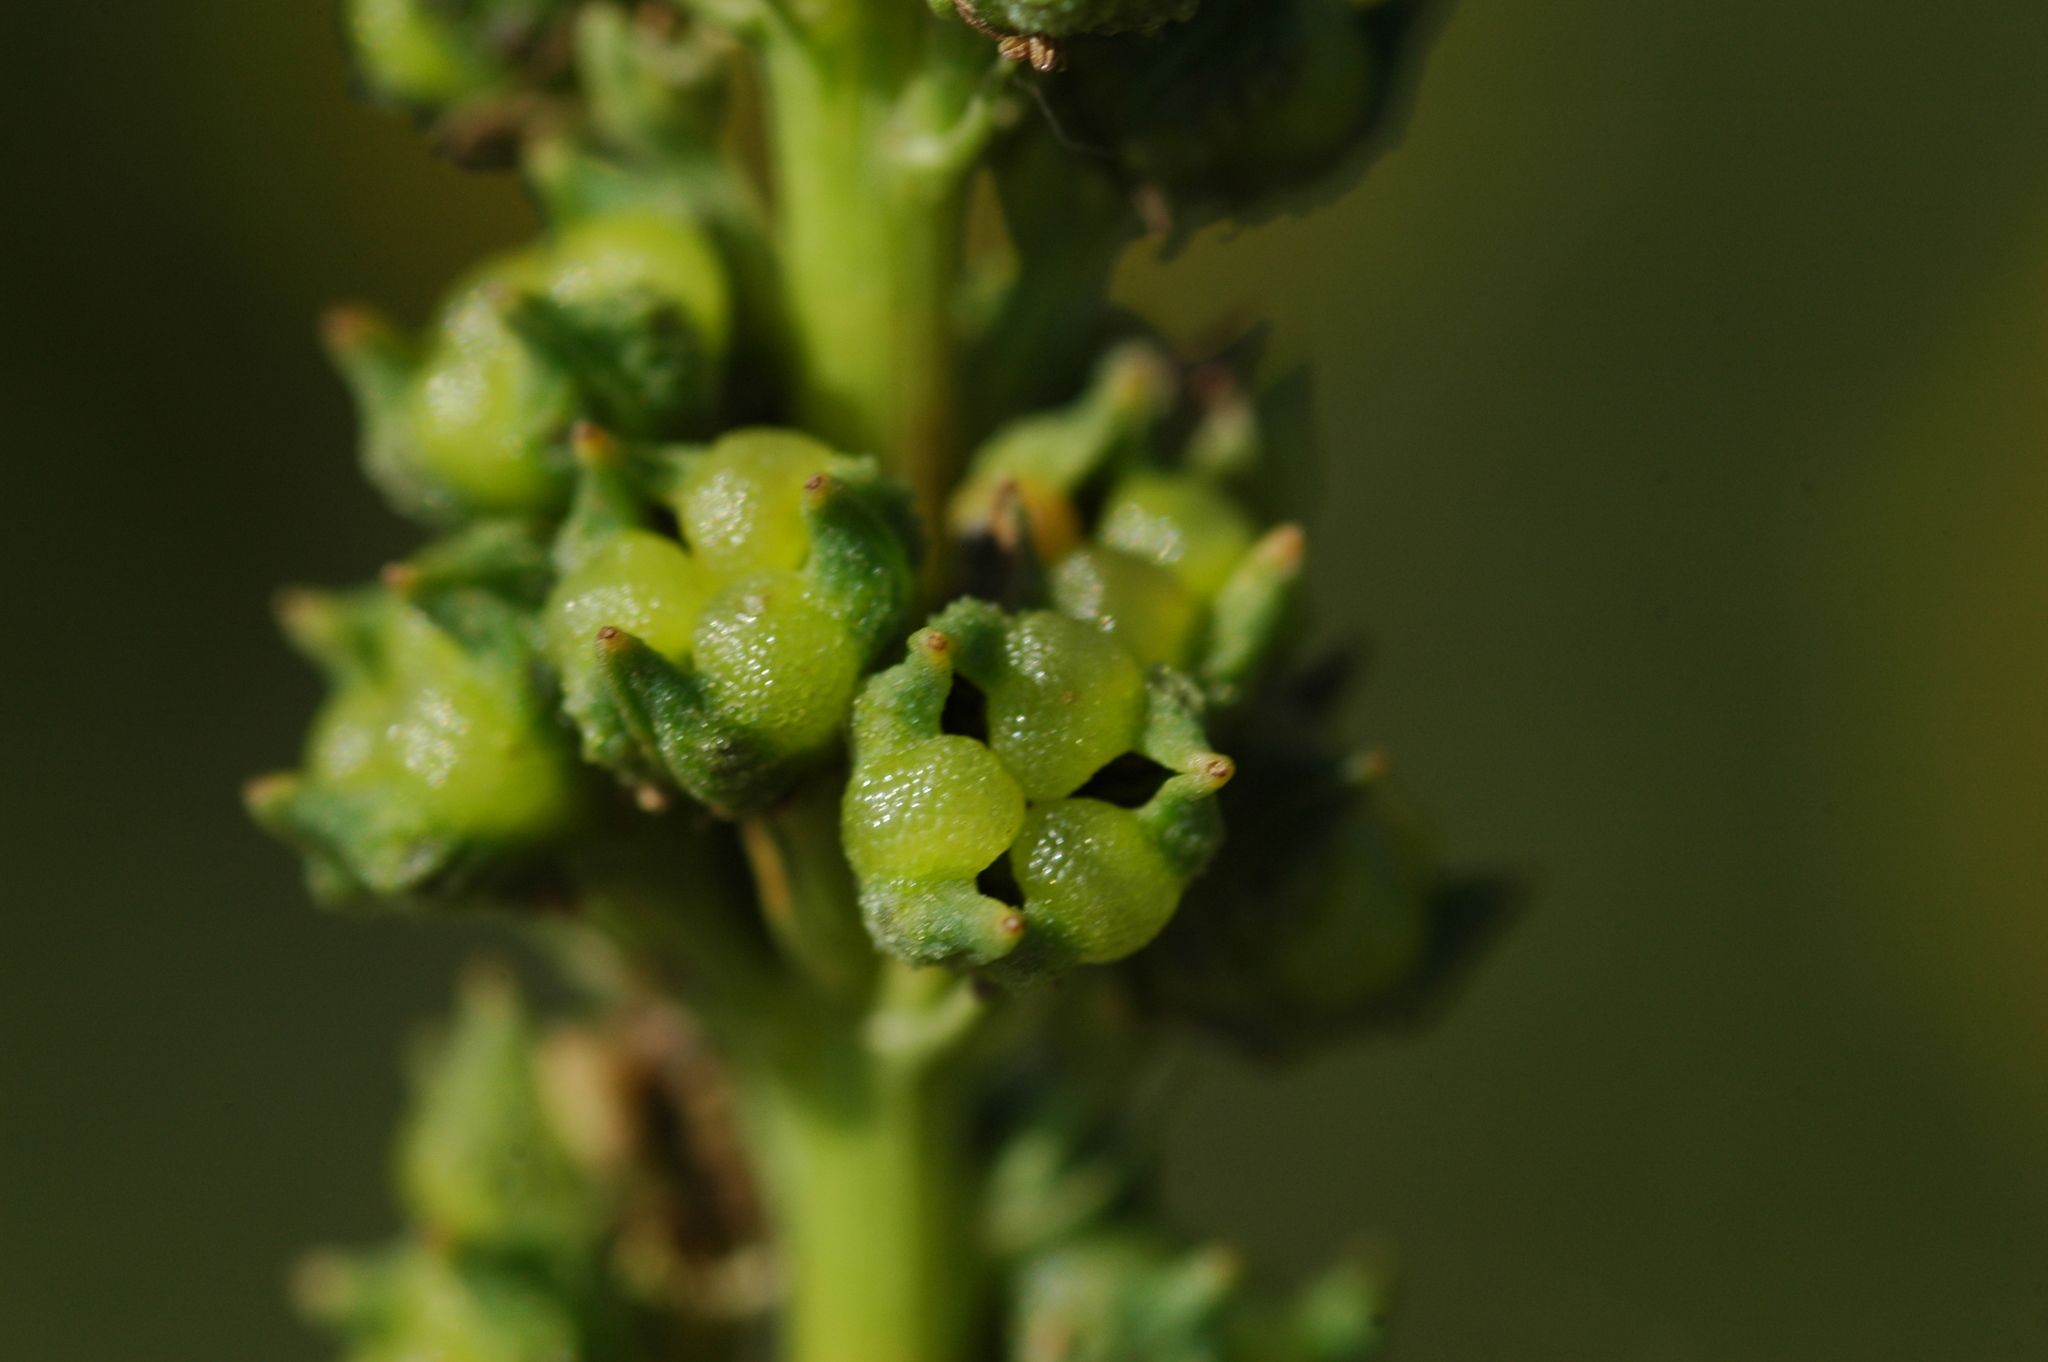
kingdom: Plantae
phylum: Tracheophyta
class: Magnoliopsida
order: Brassicales
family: Resedaceae
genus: Reseda
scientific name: Reseda luteola
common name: Weld
